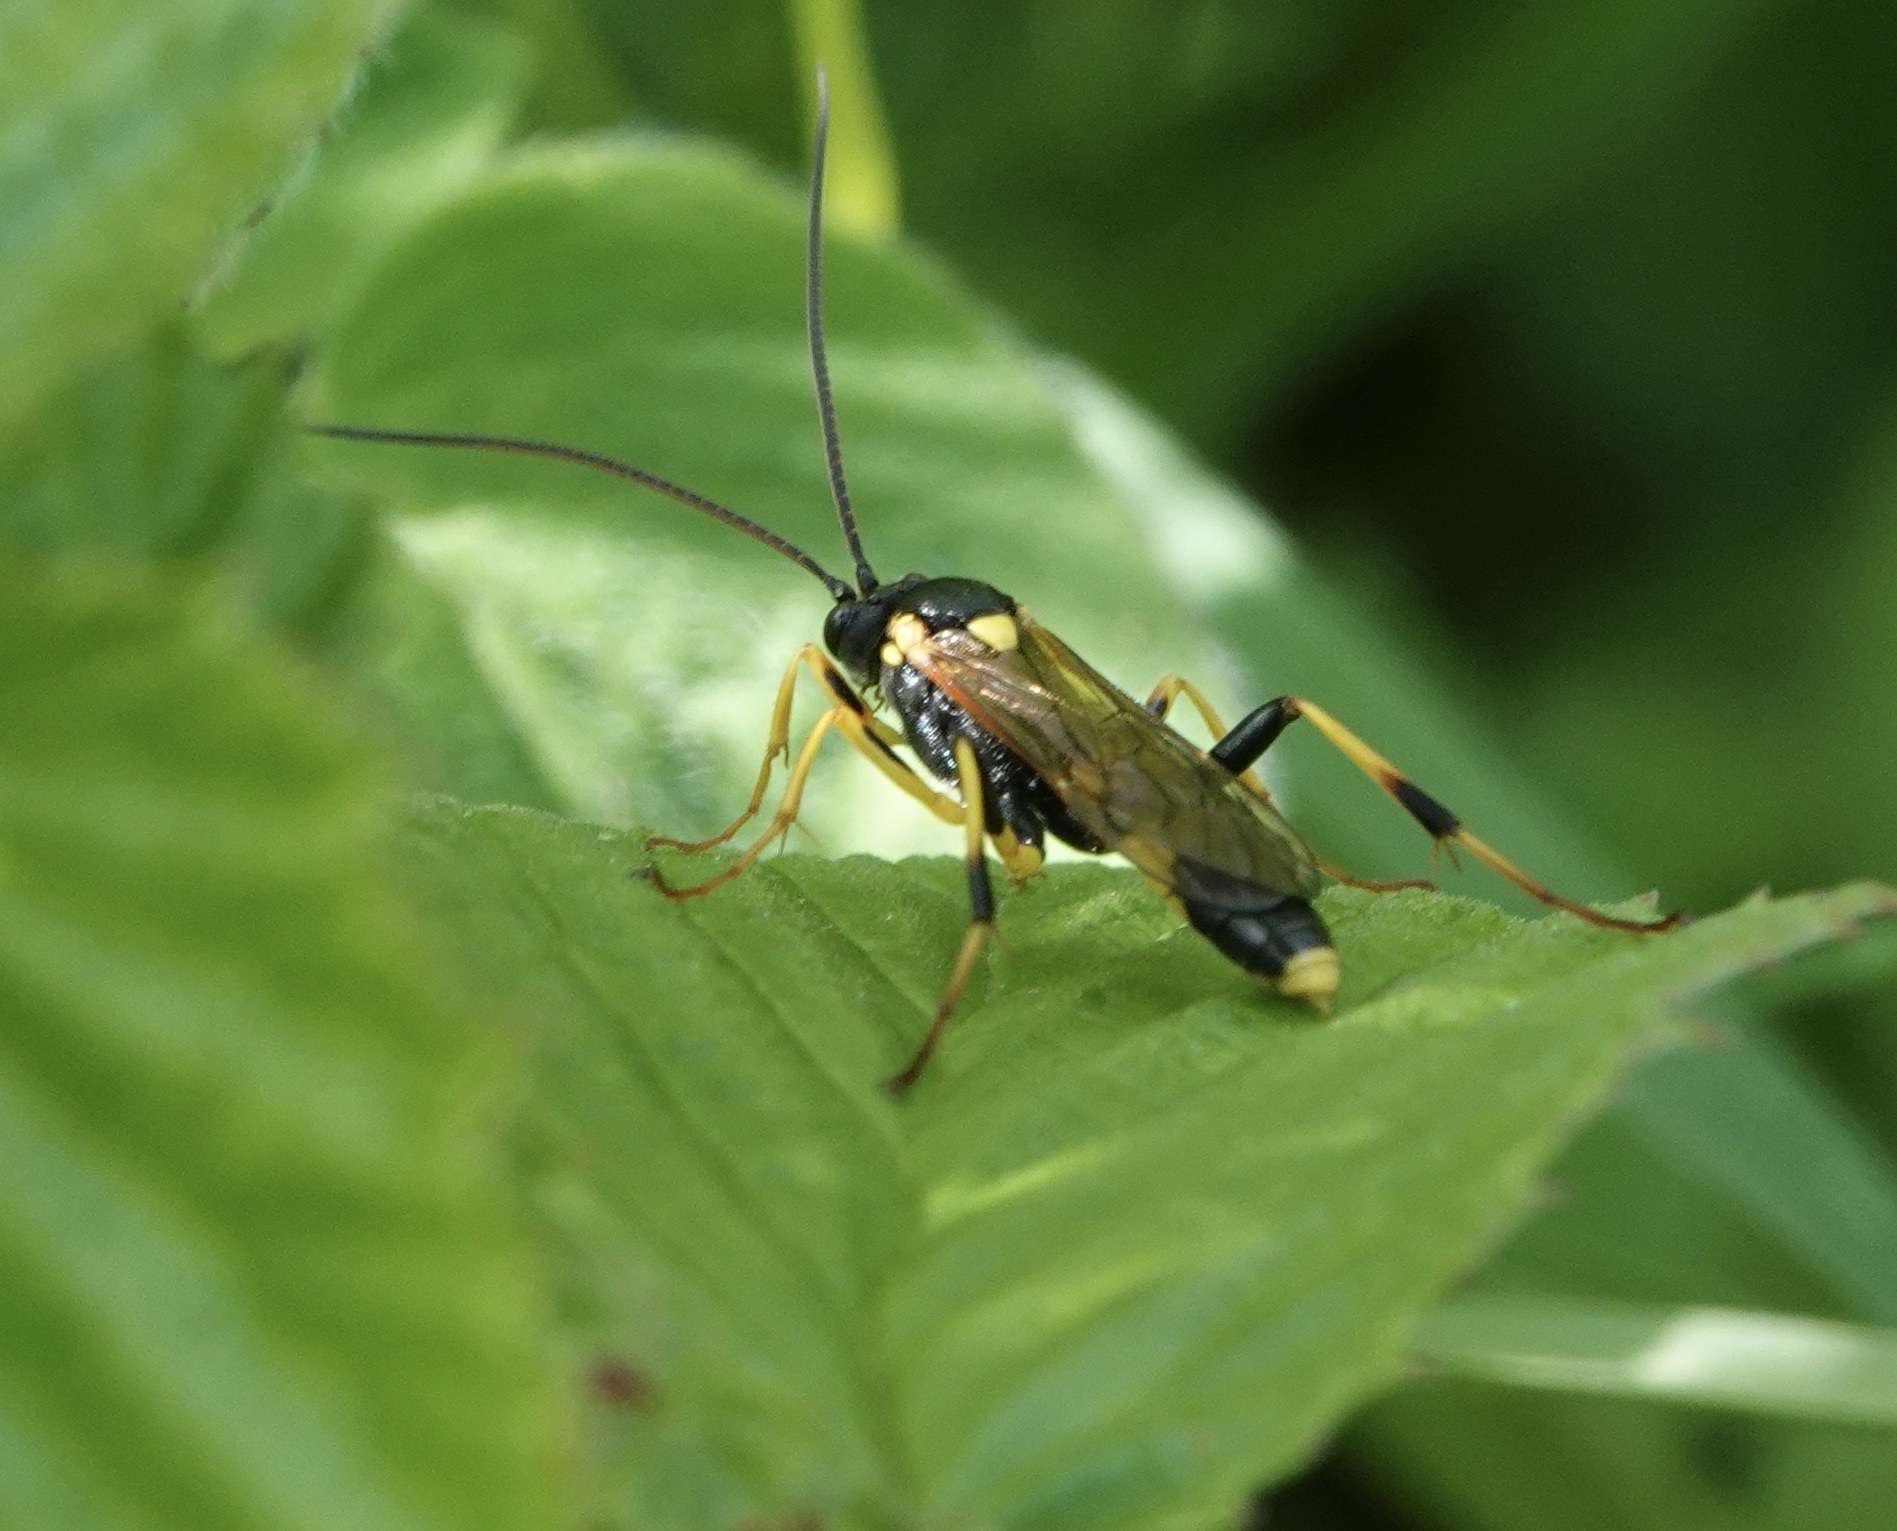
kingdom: Animalia
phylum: Arthropoda
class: Insecta
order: Hymenoptera
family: Ichneumonidae
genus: Amblyteles
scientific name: Amblyteles armatorius
